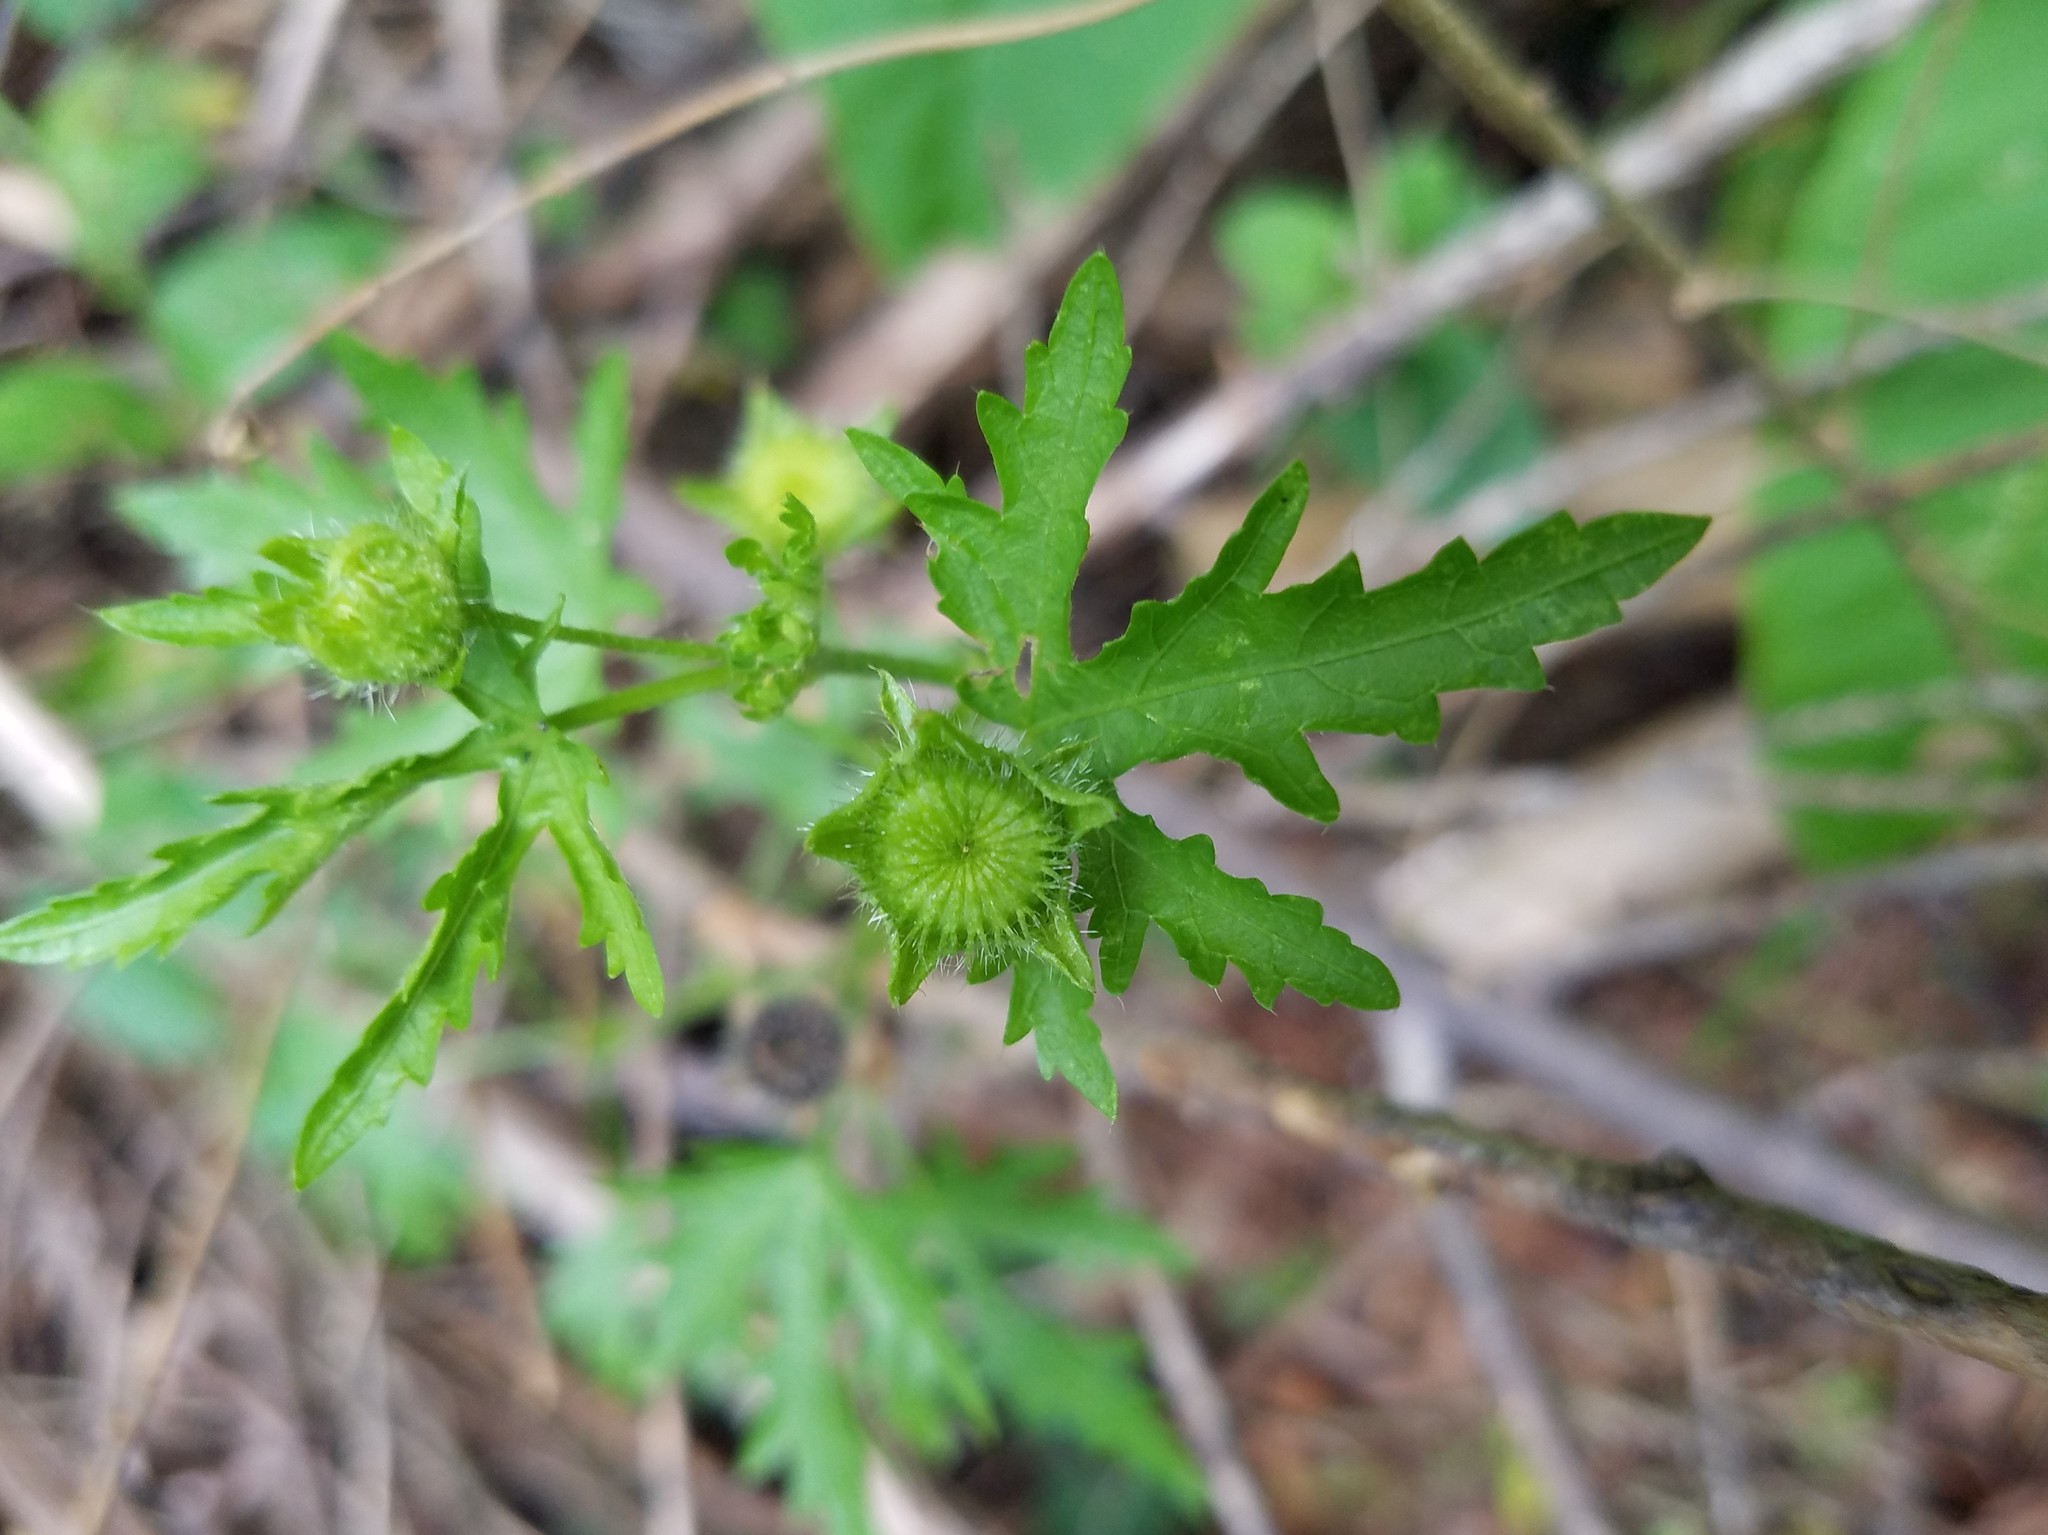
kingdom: Plantae
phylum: Tracheophyta
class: Magnoliopsida
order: Malvales
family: Malvaceae
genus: Modiola
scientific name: Modiola caroliniana
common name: Carolina bristlemallow
